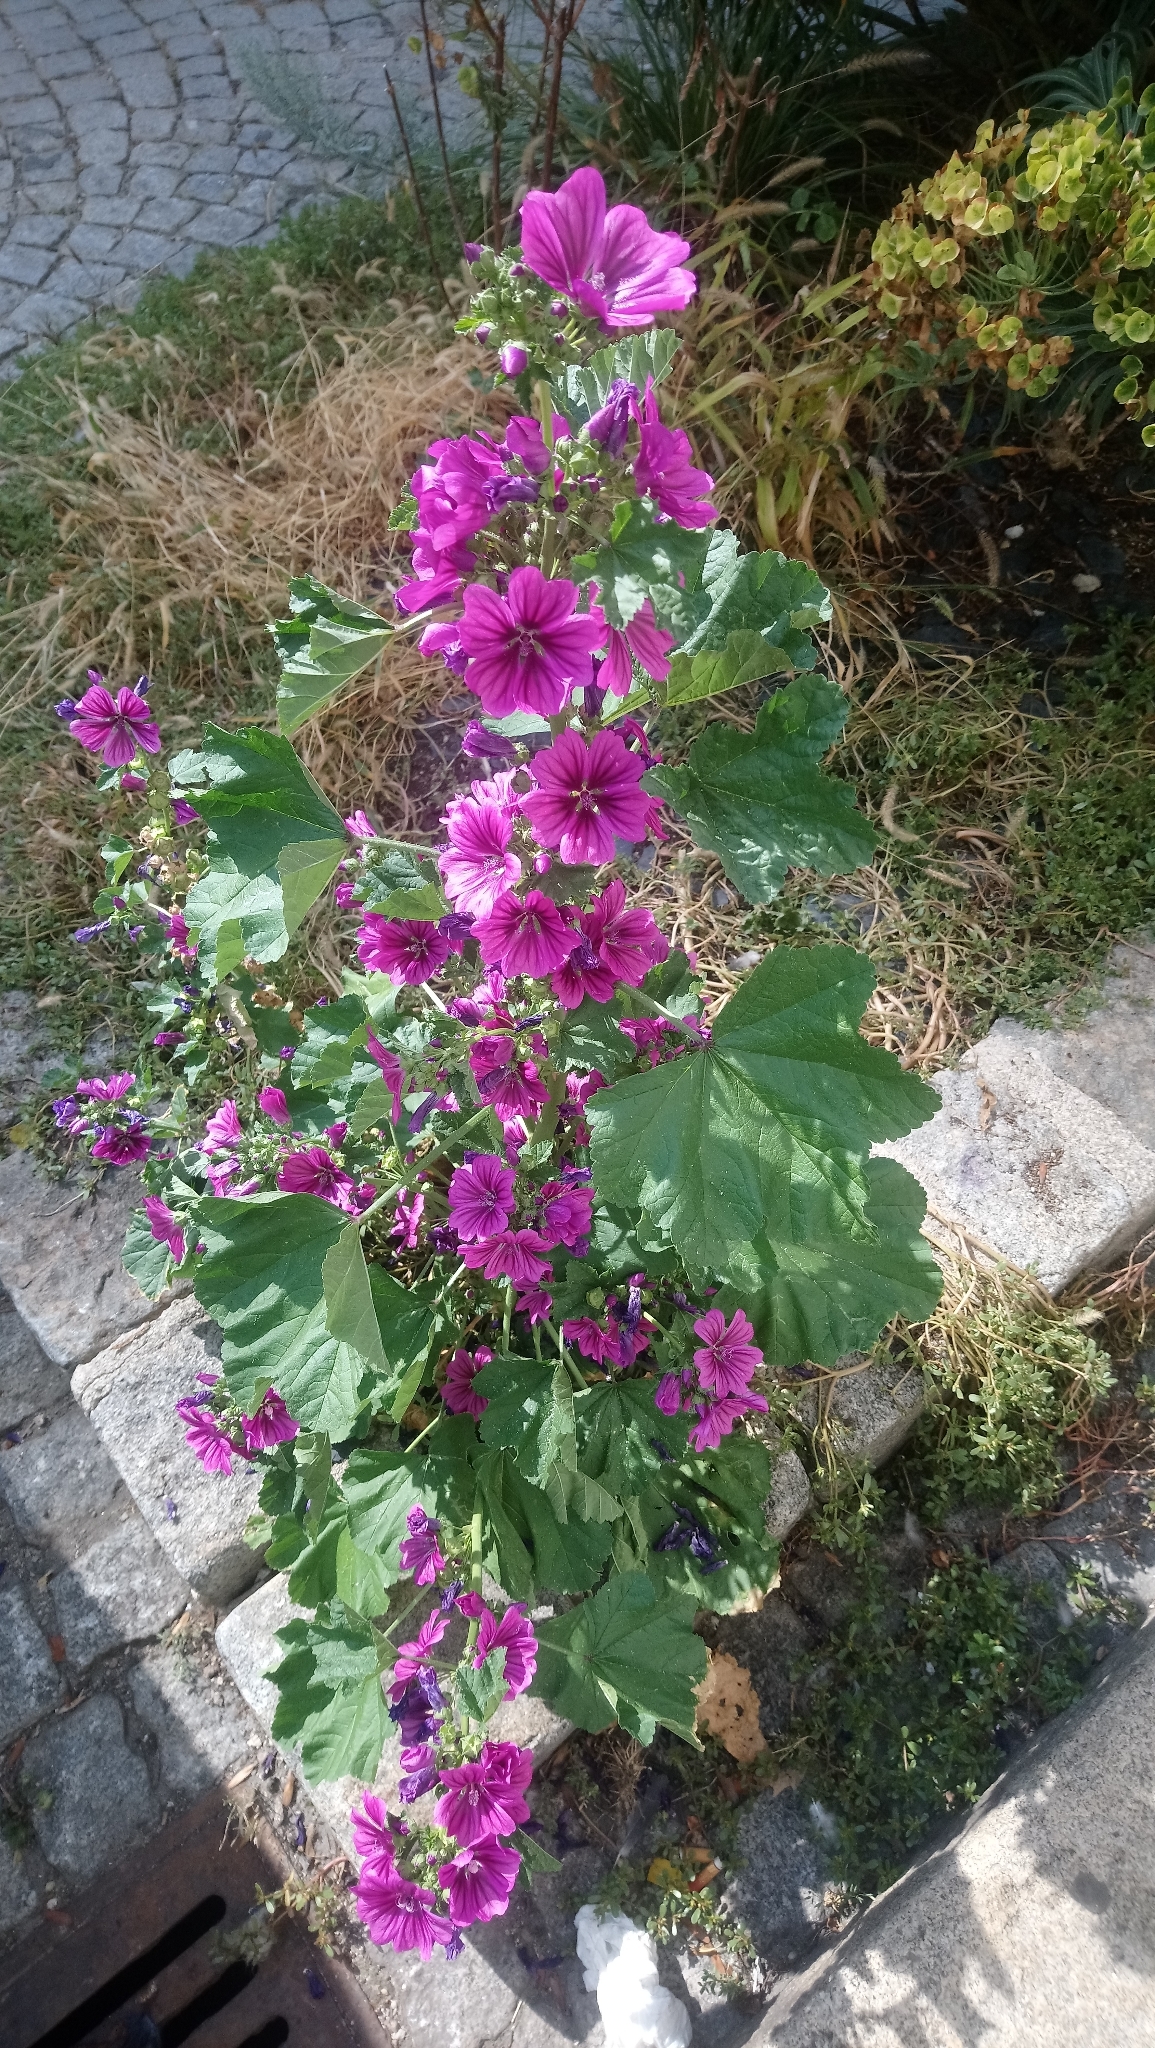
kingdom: Plantae
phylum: Tracheophyta
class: Magnoliopsida
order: Malvales
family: Malvaceae
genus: Malva
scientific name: Malva sylvestris
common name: Common mallow
